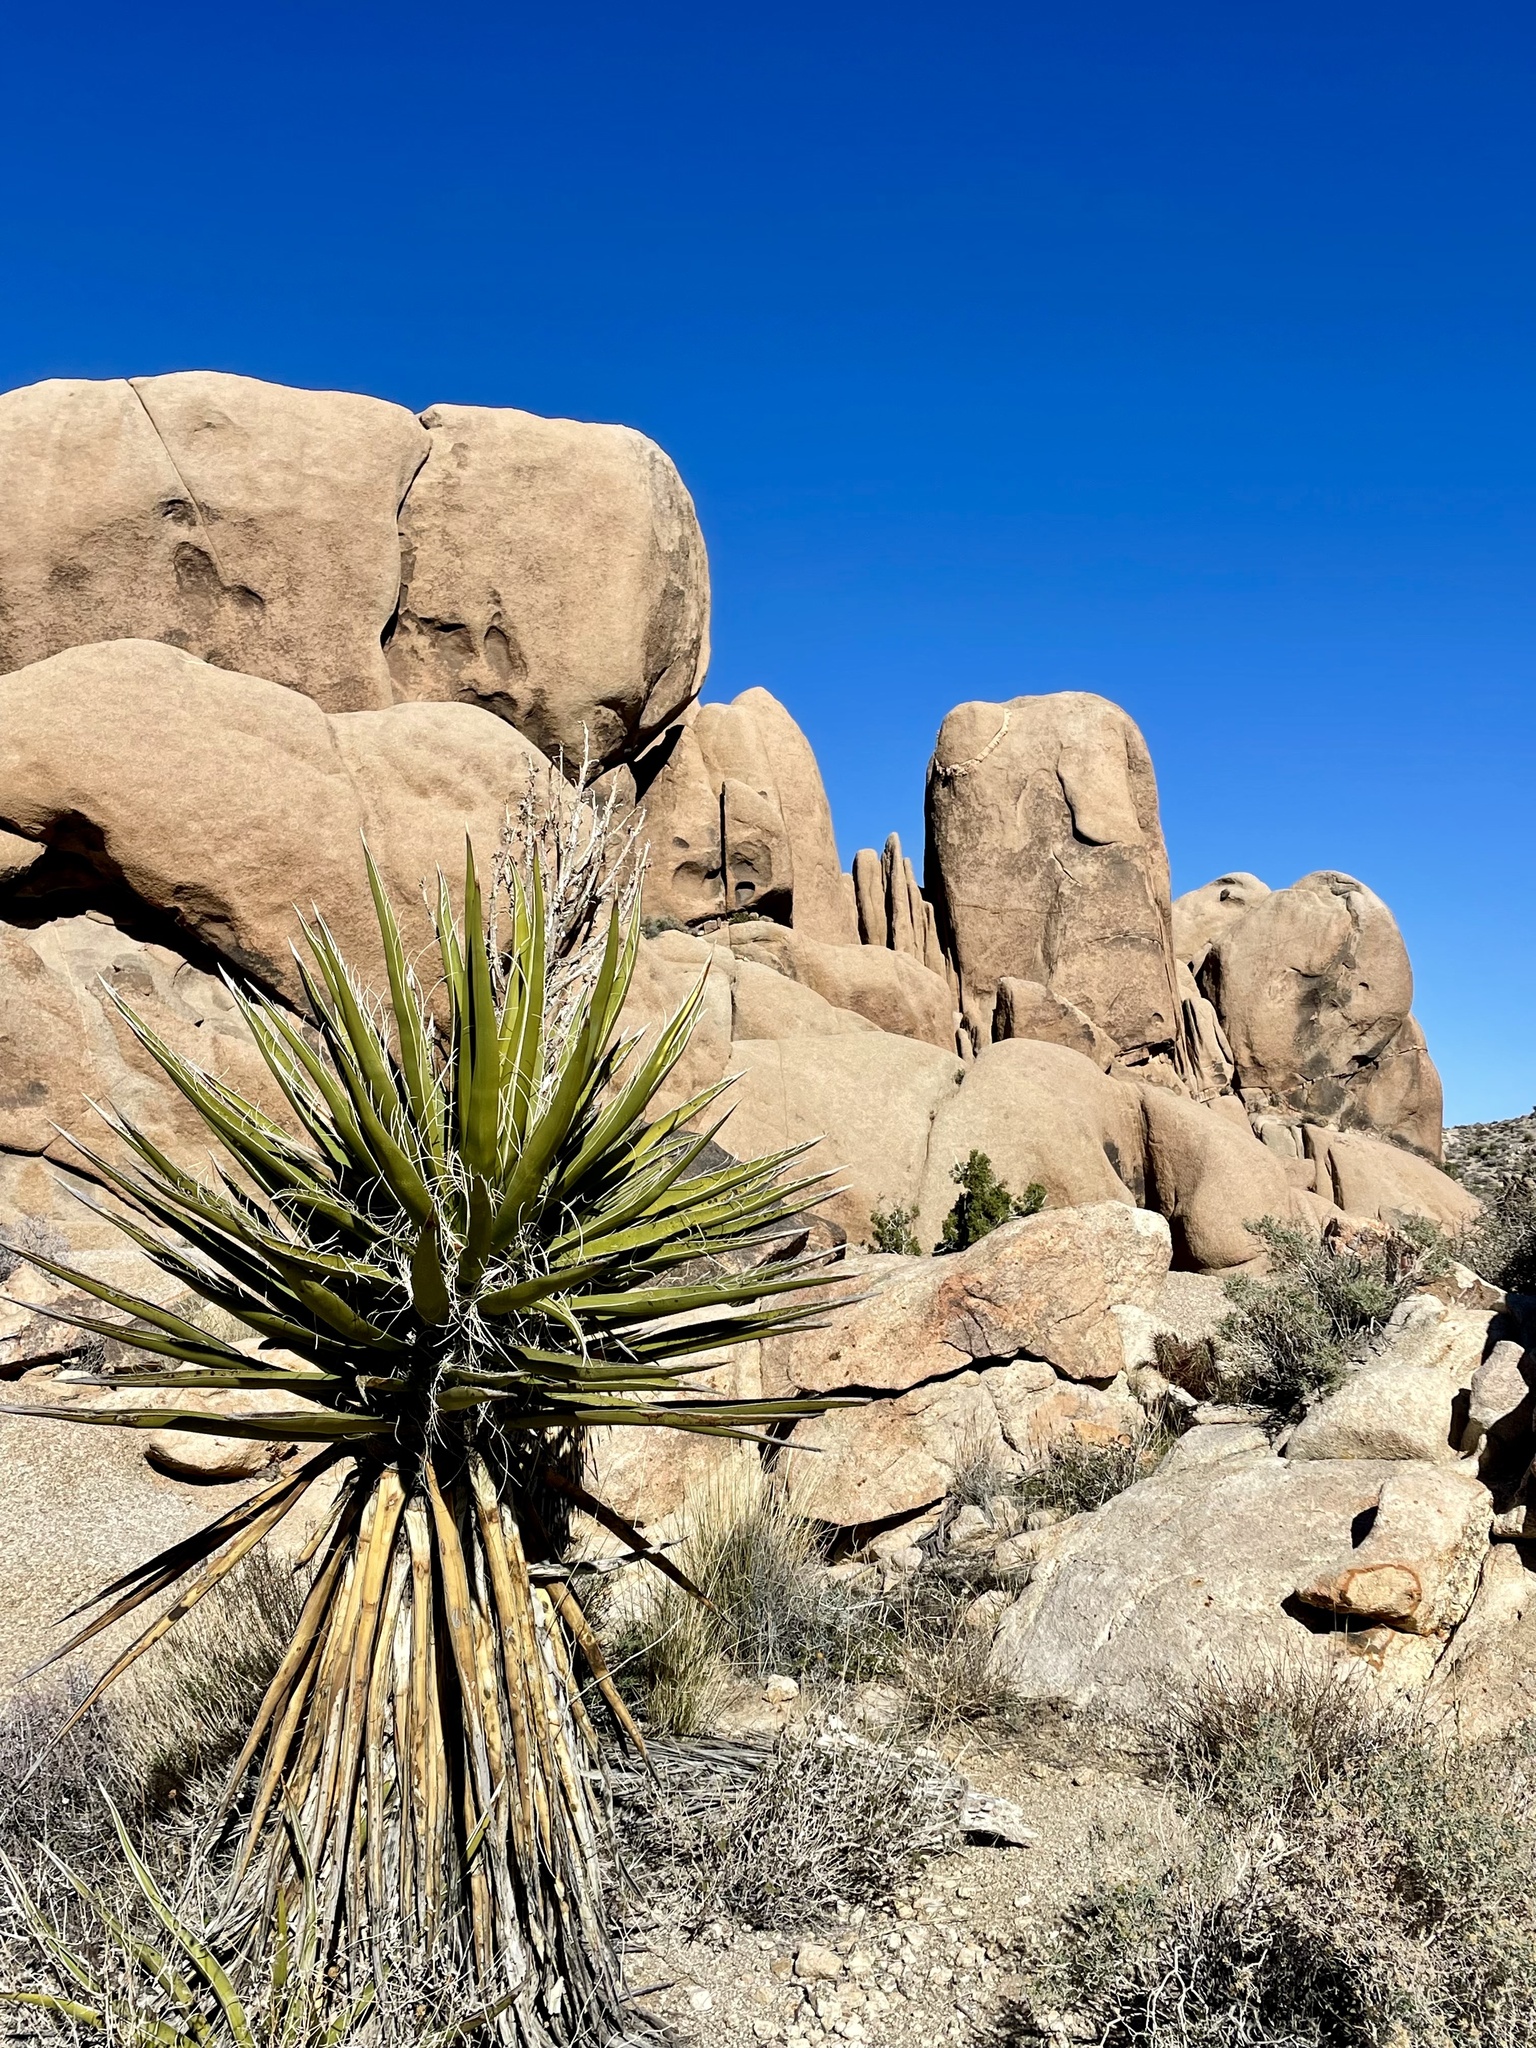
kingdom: Plantae
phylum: Tracheophyta
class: Liliopsida
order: Asparagales
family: Asparagaceae
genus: Yucca
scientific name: Yucca schidigera
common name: Mojave yucca
